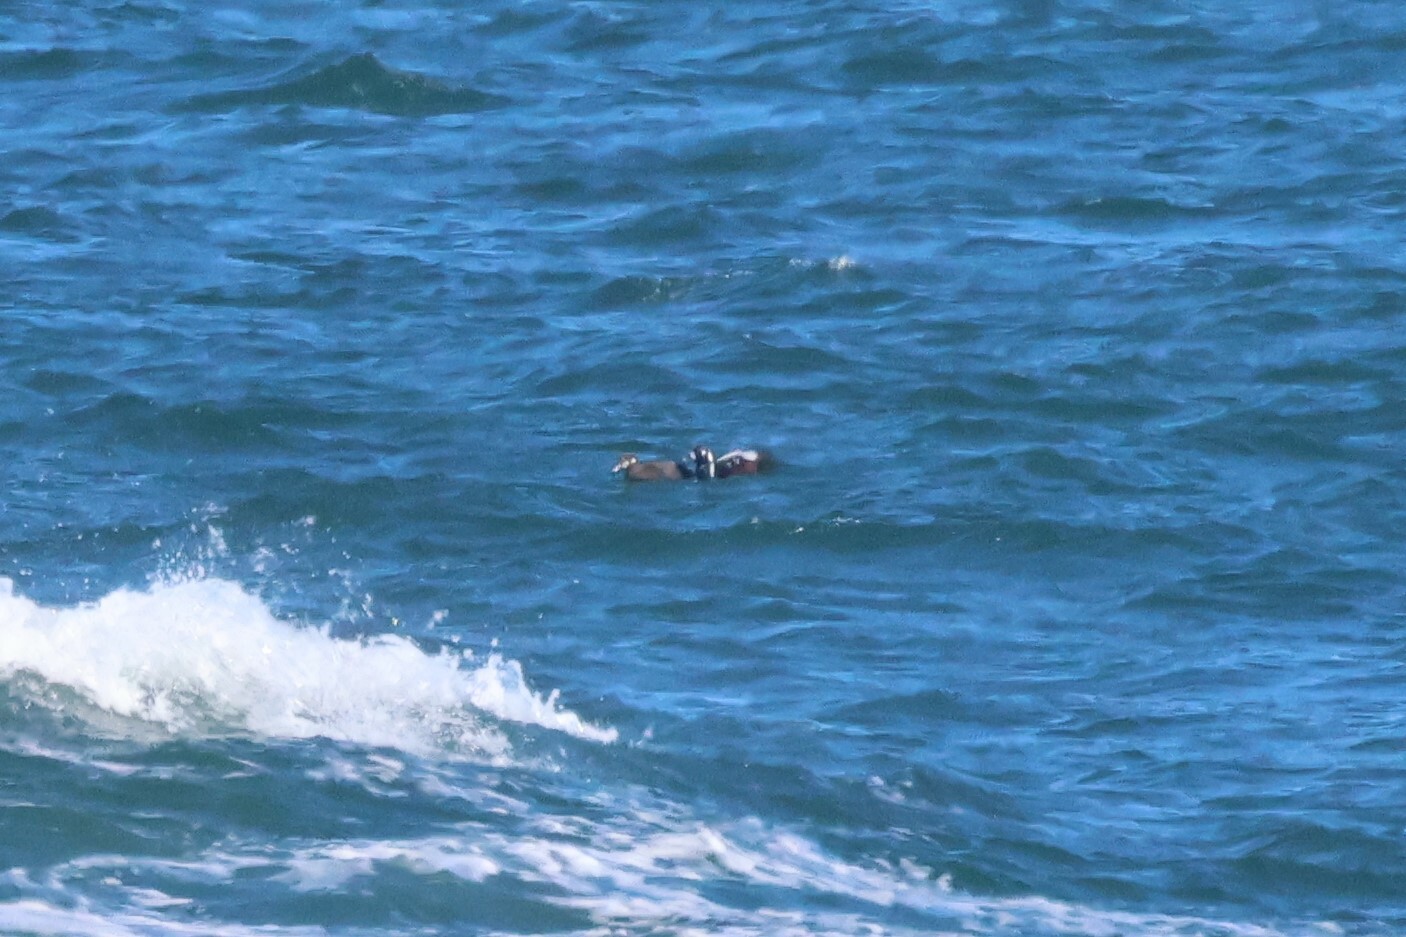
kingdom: Animalia
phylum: Chordata
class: Aves
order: Anseriformes
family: Anatidae
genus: Histrionicus
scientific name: Histrionicus histrionicus
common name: Harlequin duck
